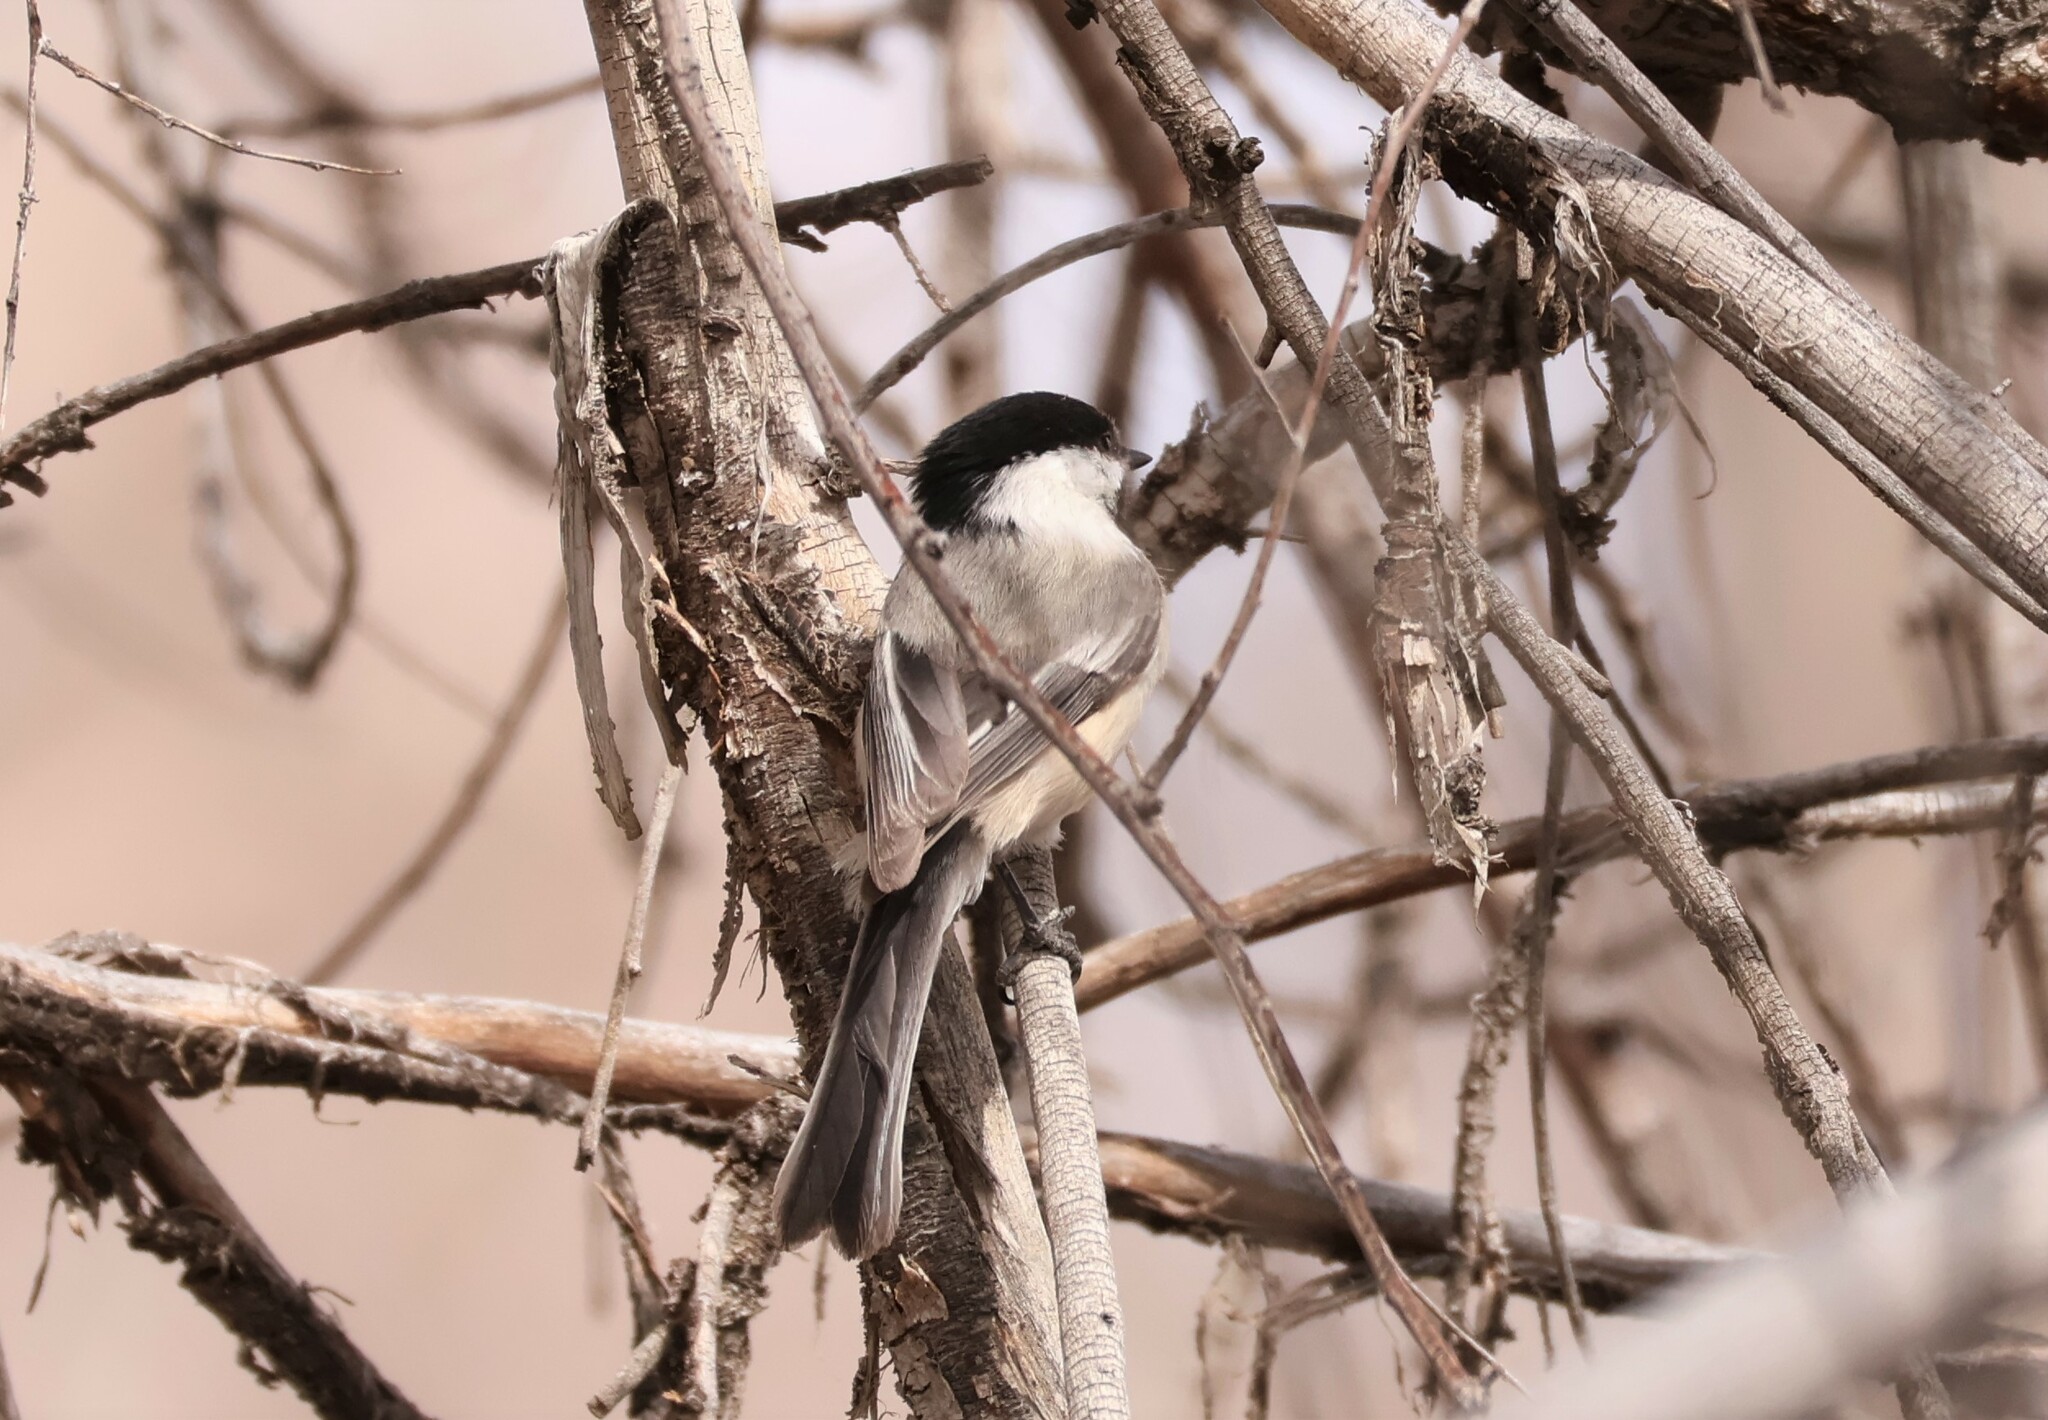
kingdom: Animalia
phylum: Chordata
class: Aves
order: Passeriformes
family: Paridae
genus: Poecile
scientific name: Poecile atricapillus
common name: Black-capped chickadee
